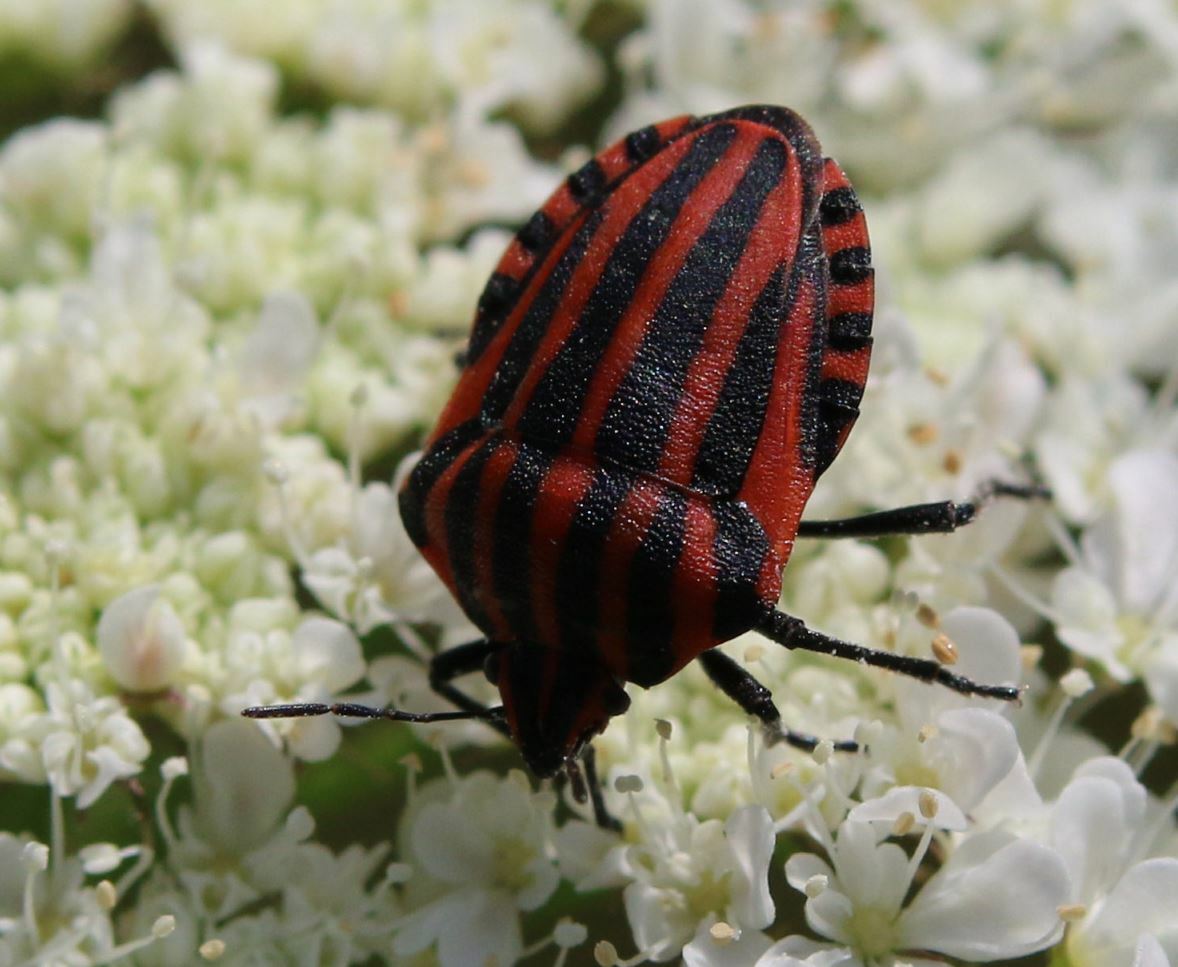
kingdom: Animalia
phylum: Arthropoda
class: Insecta
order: Hemiptera
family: Pentatomidae
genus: Graphosoma
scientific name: Graphosoma italicum
